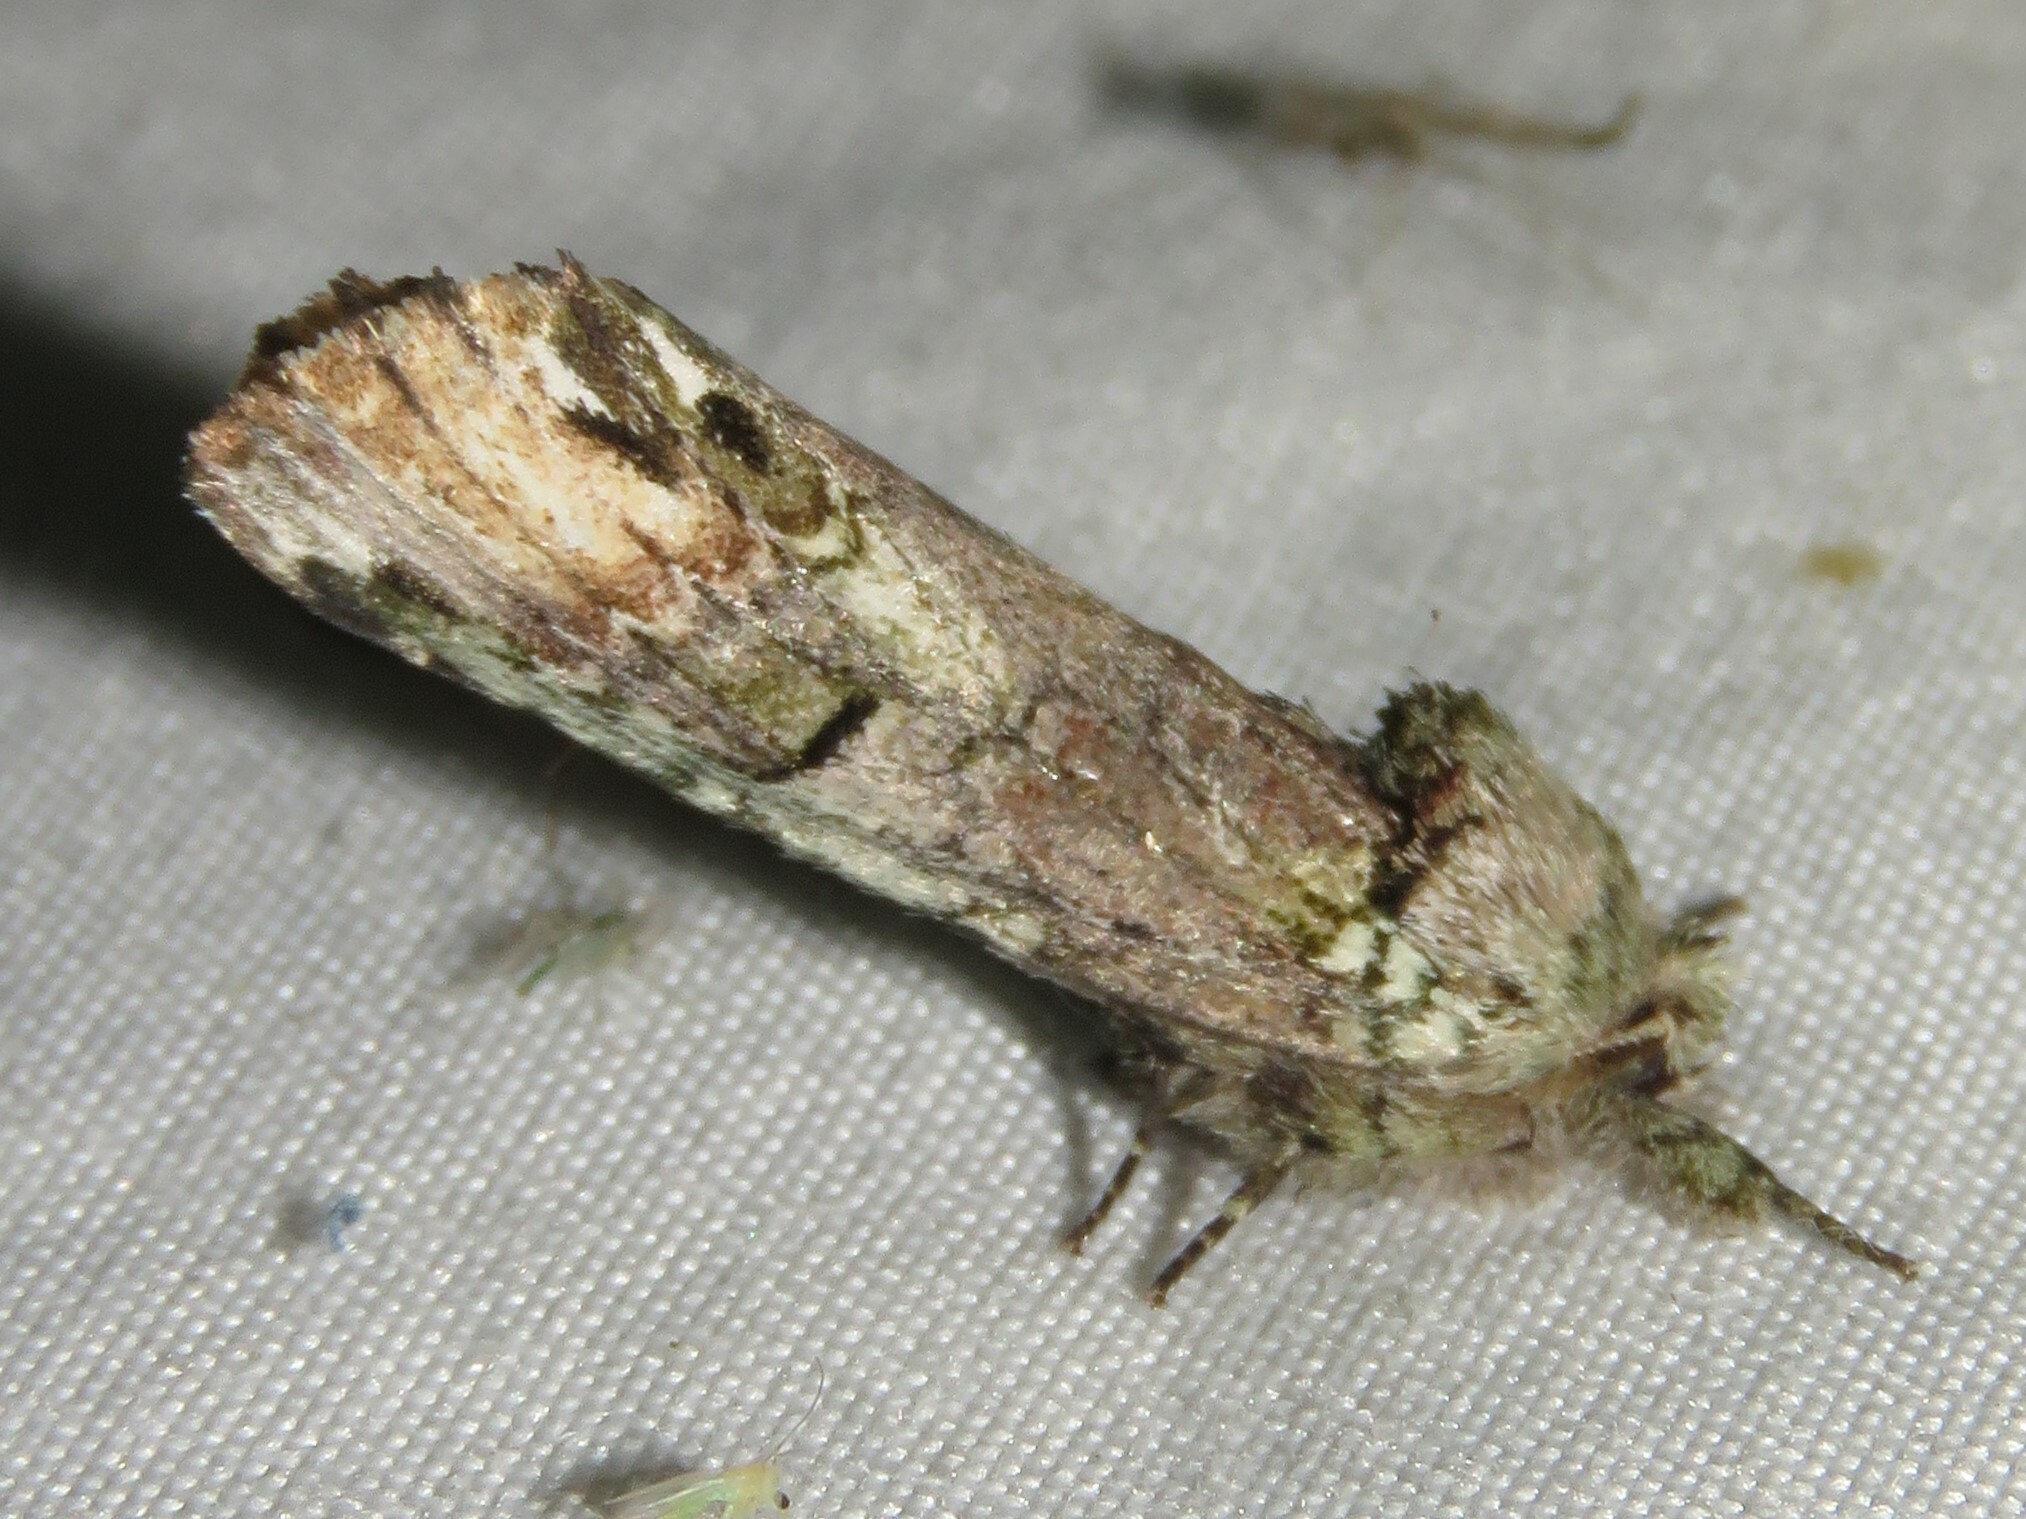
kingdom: Animalia
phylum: Arthropoda
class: Insecta
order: Lepidoptera
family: Notodontidae
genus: Schizura
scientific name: Schizura
